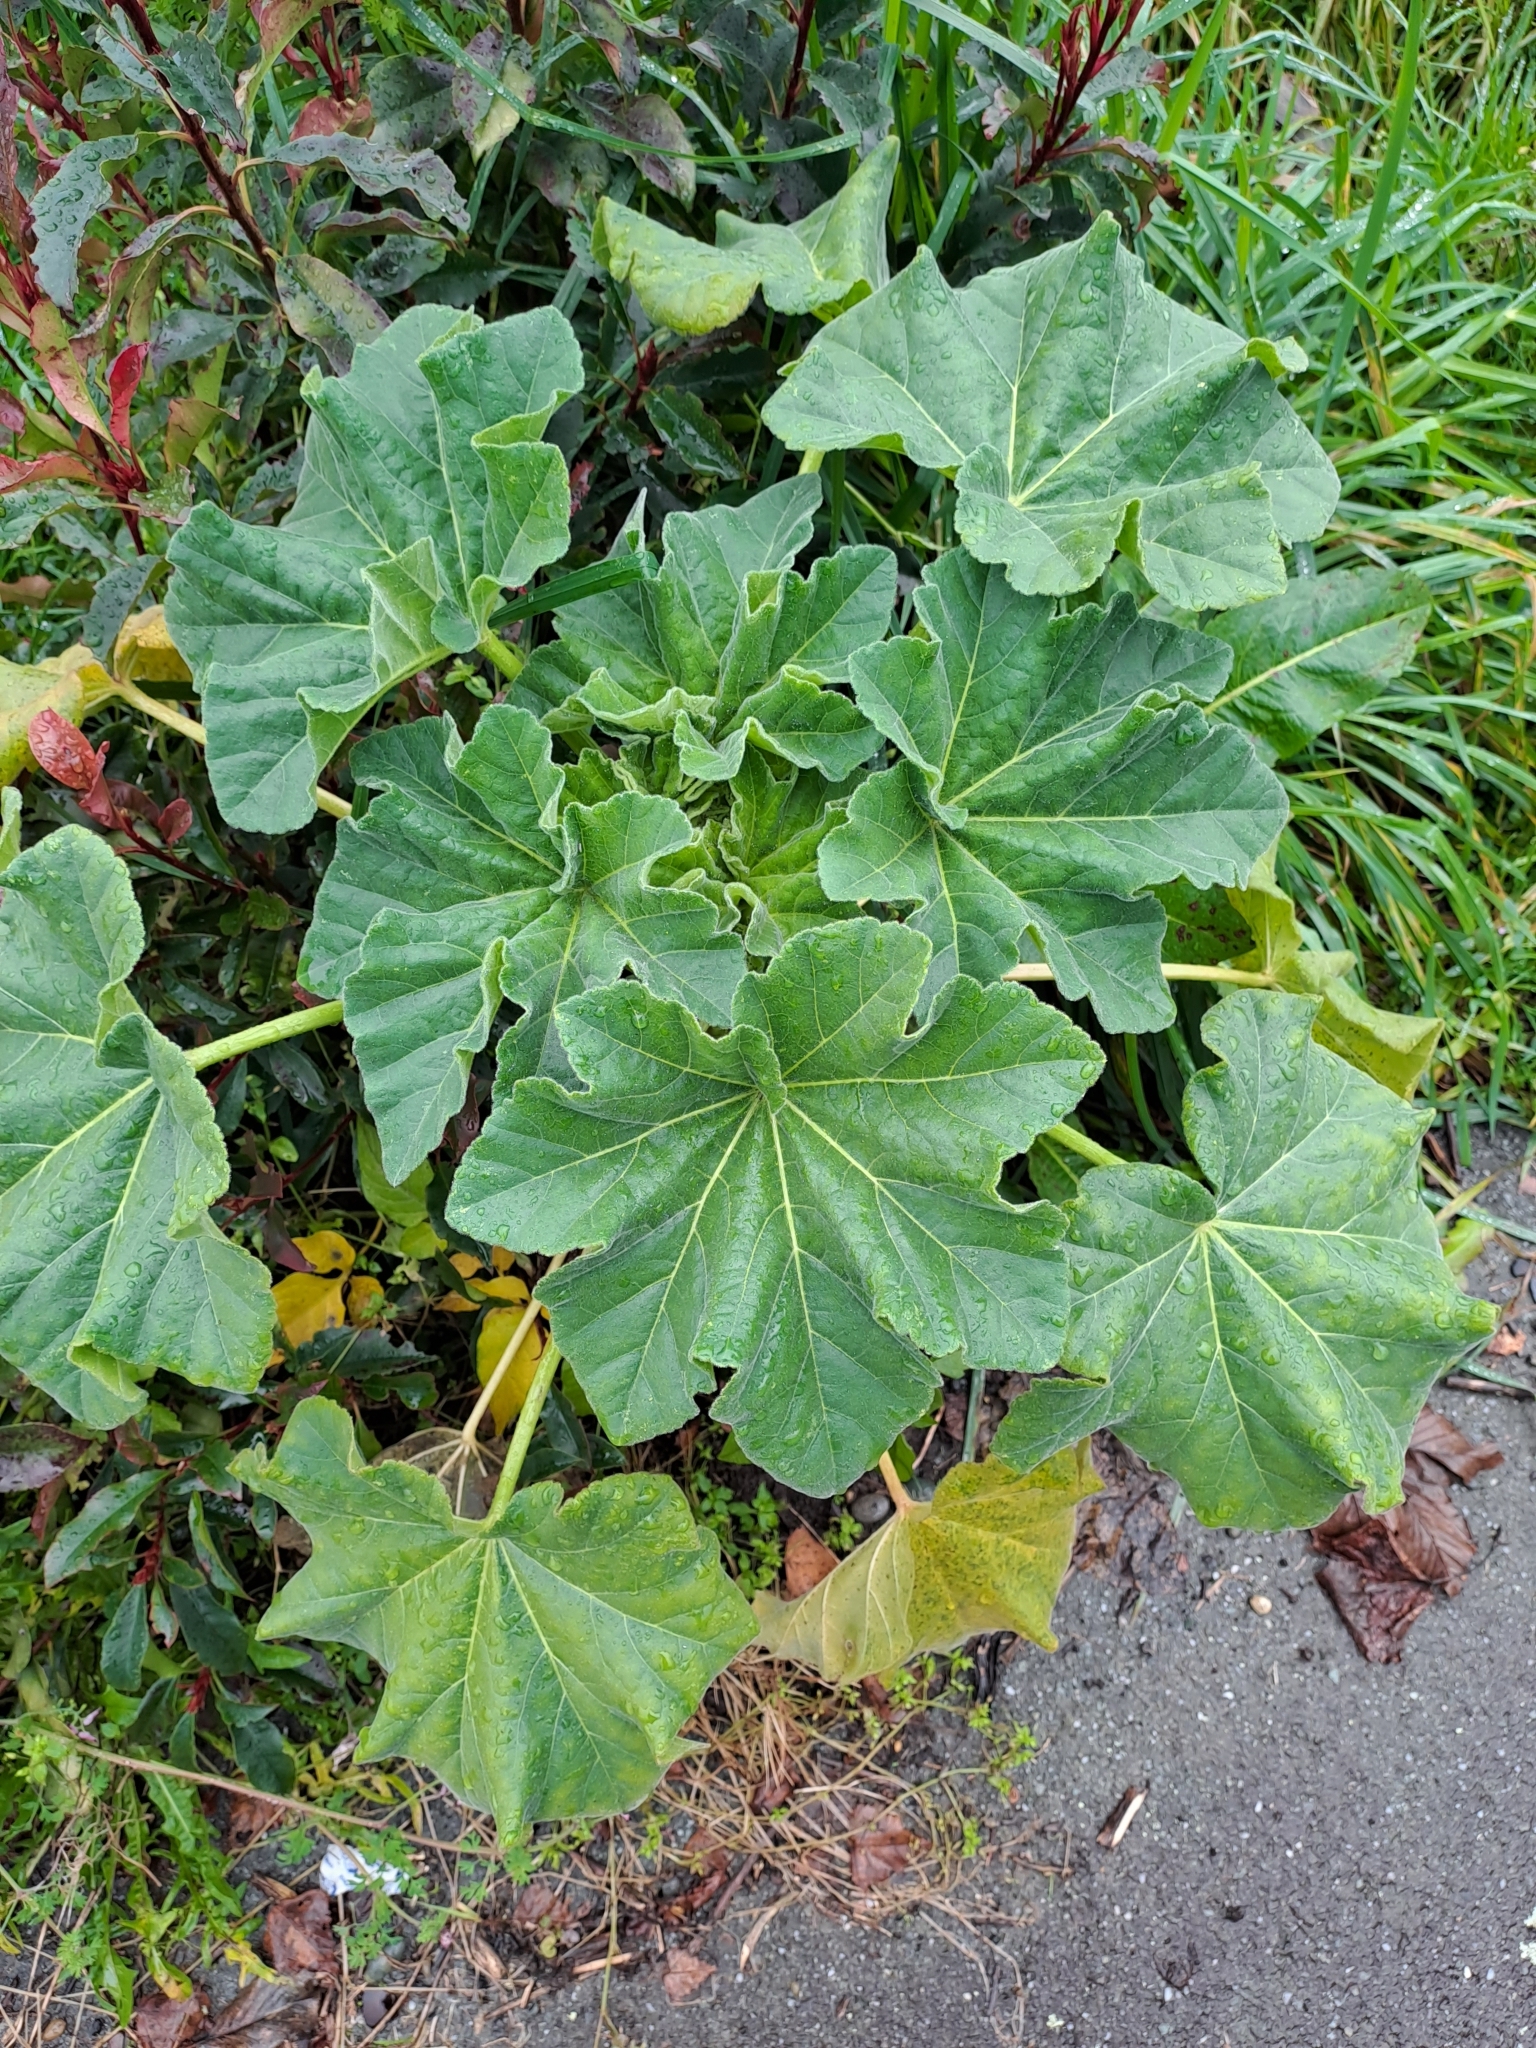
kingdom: Plantae
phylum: Tracheophyta
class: Magnoliopsida
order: Malvales
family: Malvaceae
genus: Malva
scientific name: Malva arborea
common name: Tree mallow
